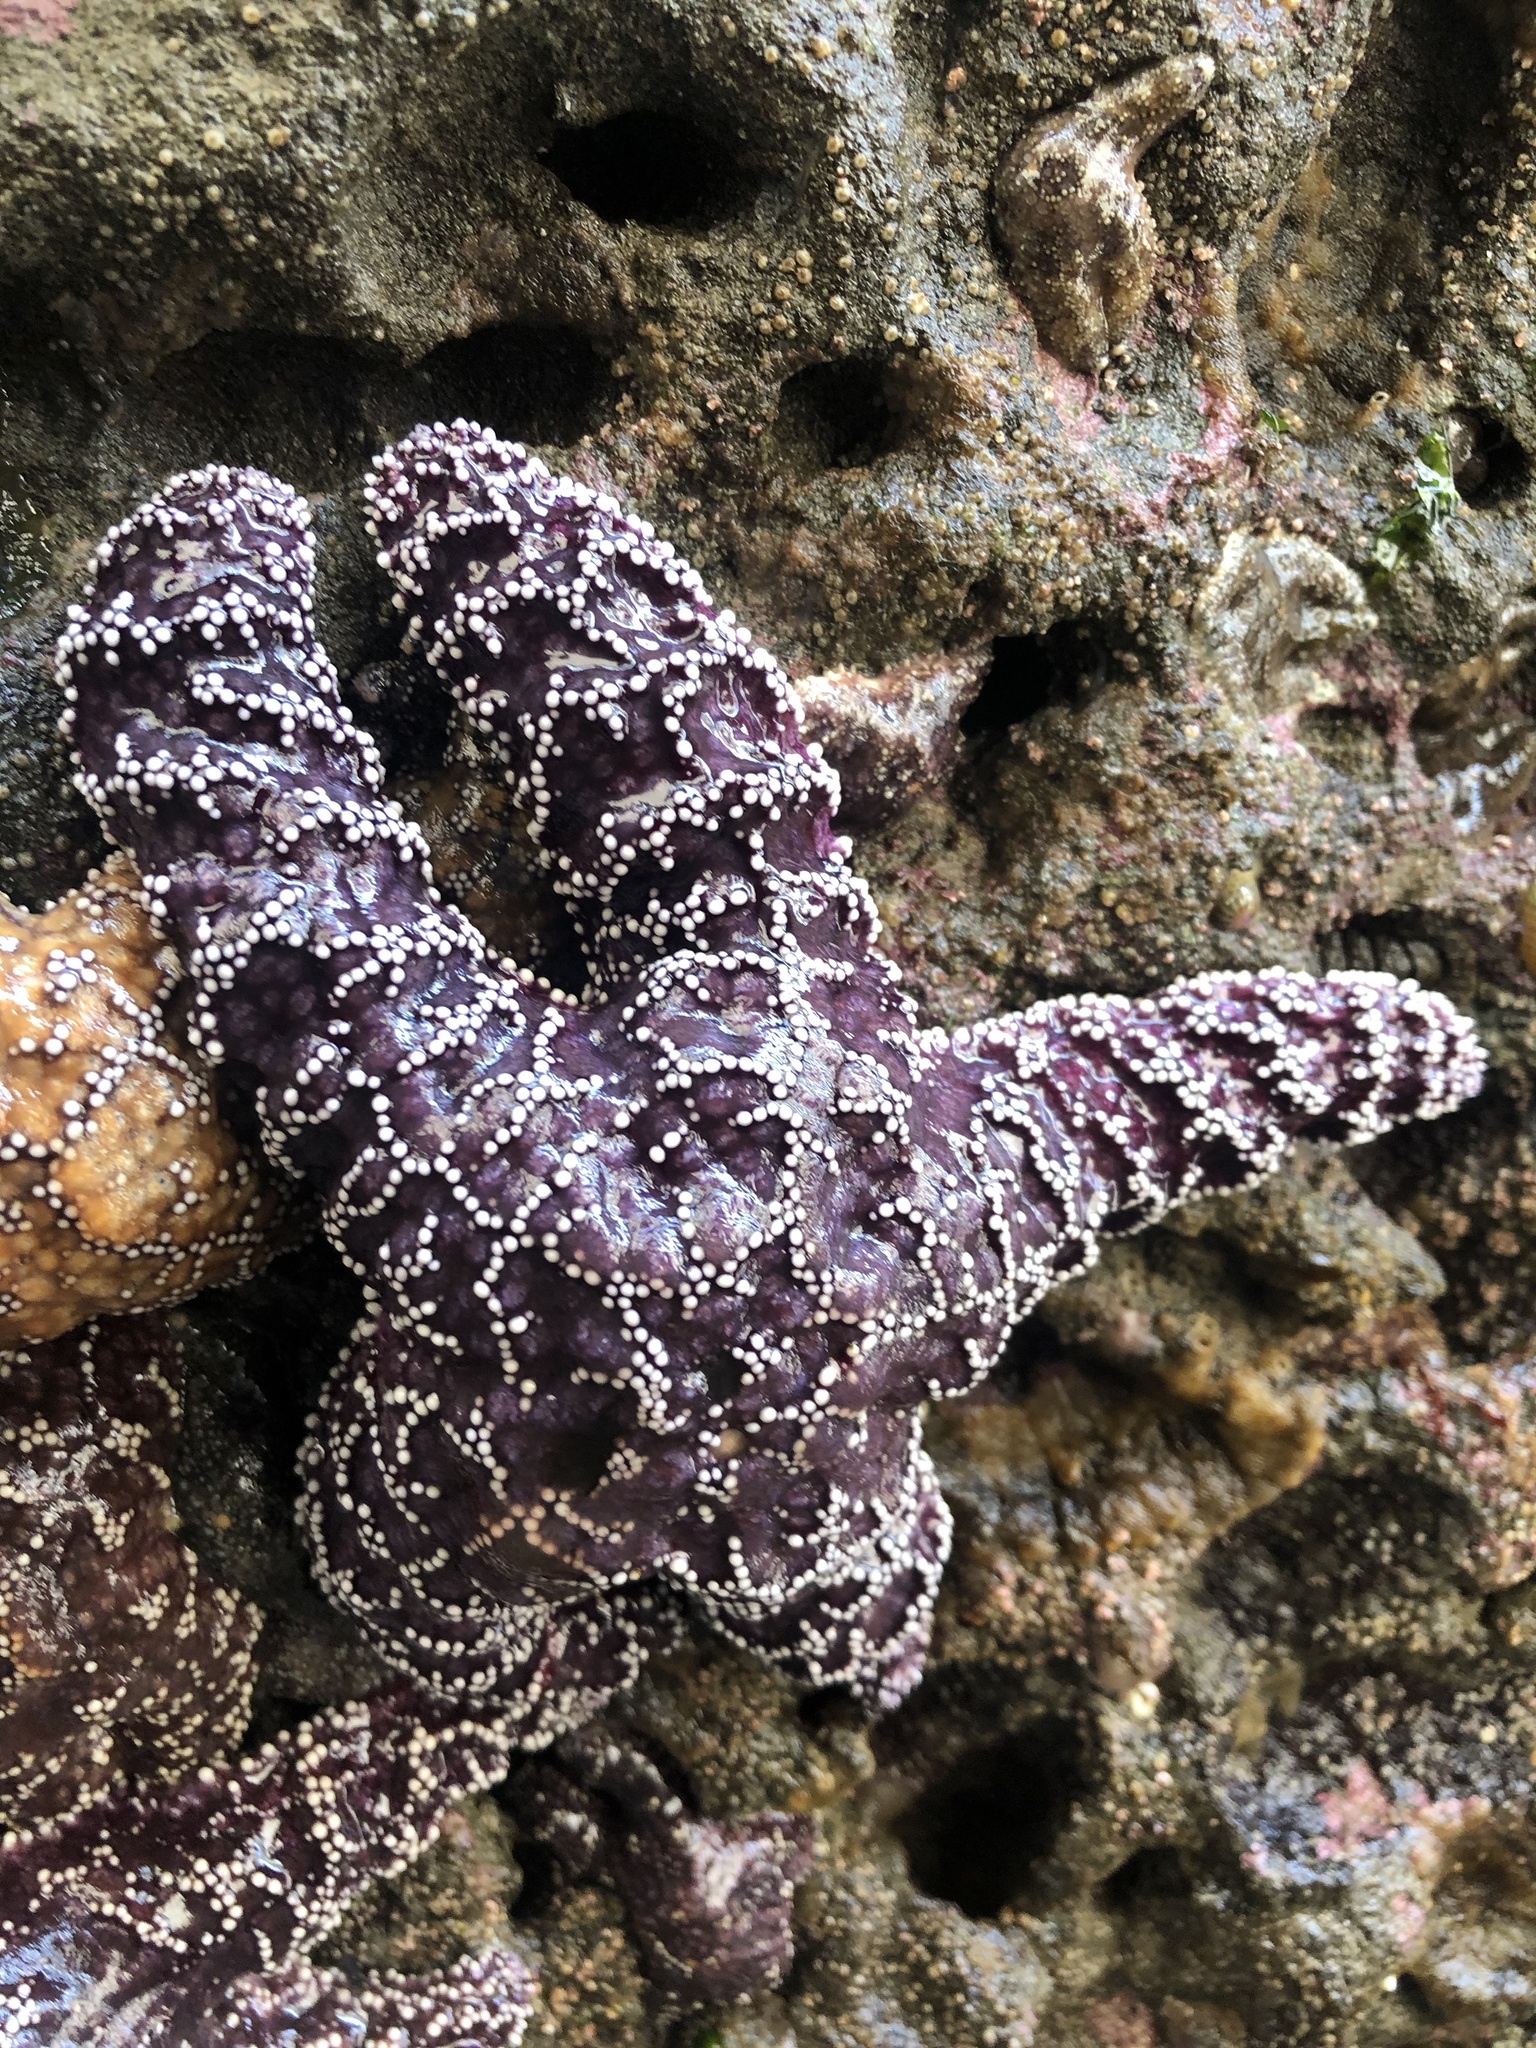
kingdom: Animalia
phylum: Echinodermata
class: Asteroidea
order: Forcipulatida
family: Asteriidae
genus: Pisaster
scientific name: Pisaster ochraceus
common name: Ochre stars
